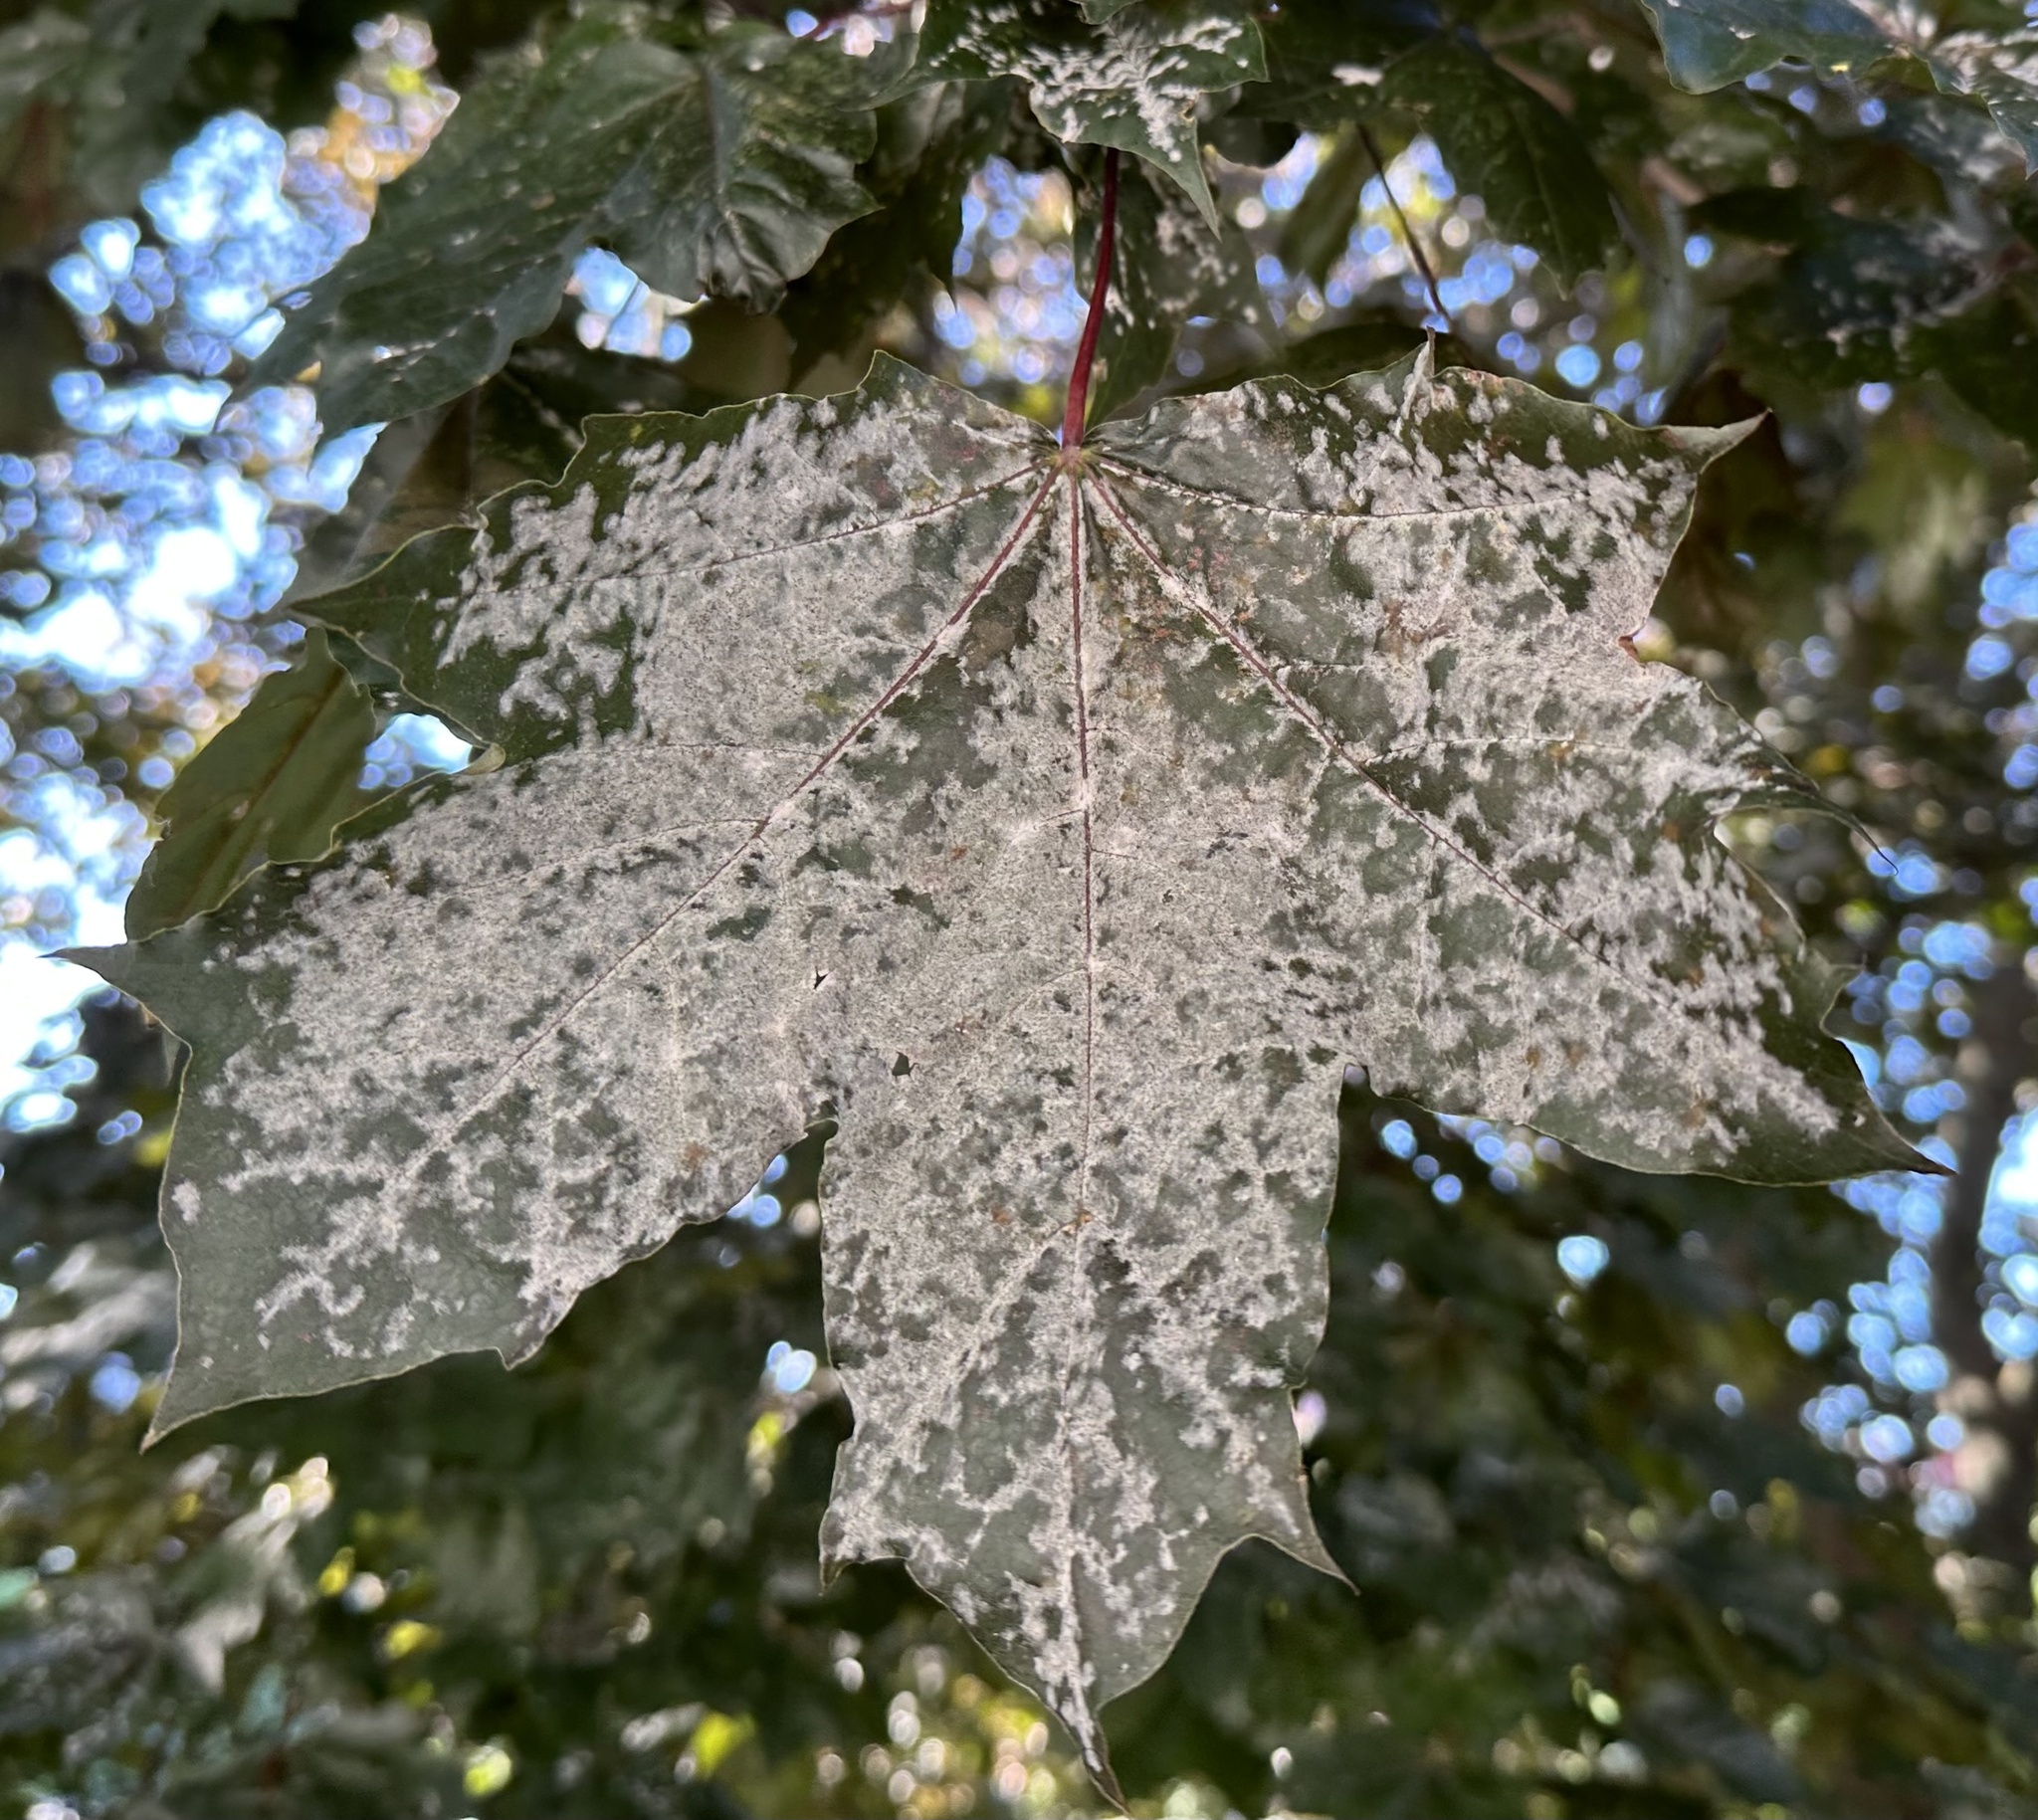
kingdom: Fungi
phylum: Ascomycota
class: Leotiomycetes
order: Helotiales
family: Erysiphaceae
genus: Sawadaea
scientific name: Sawadaea tulasnei
